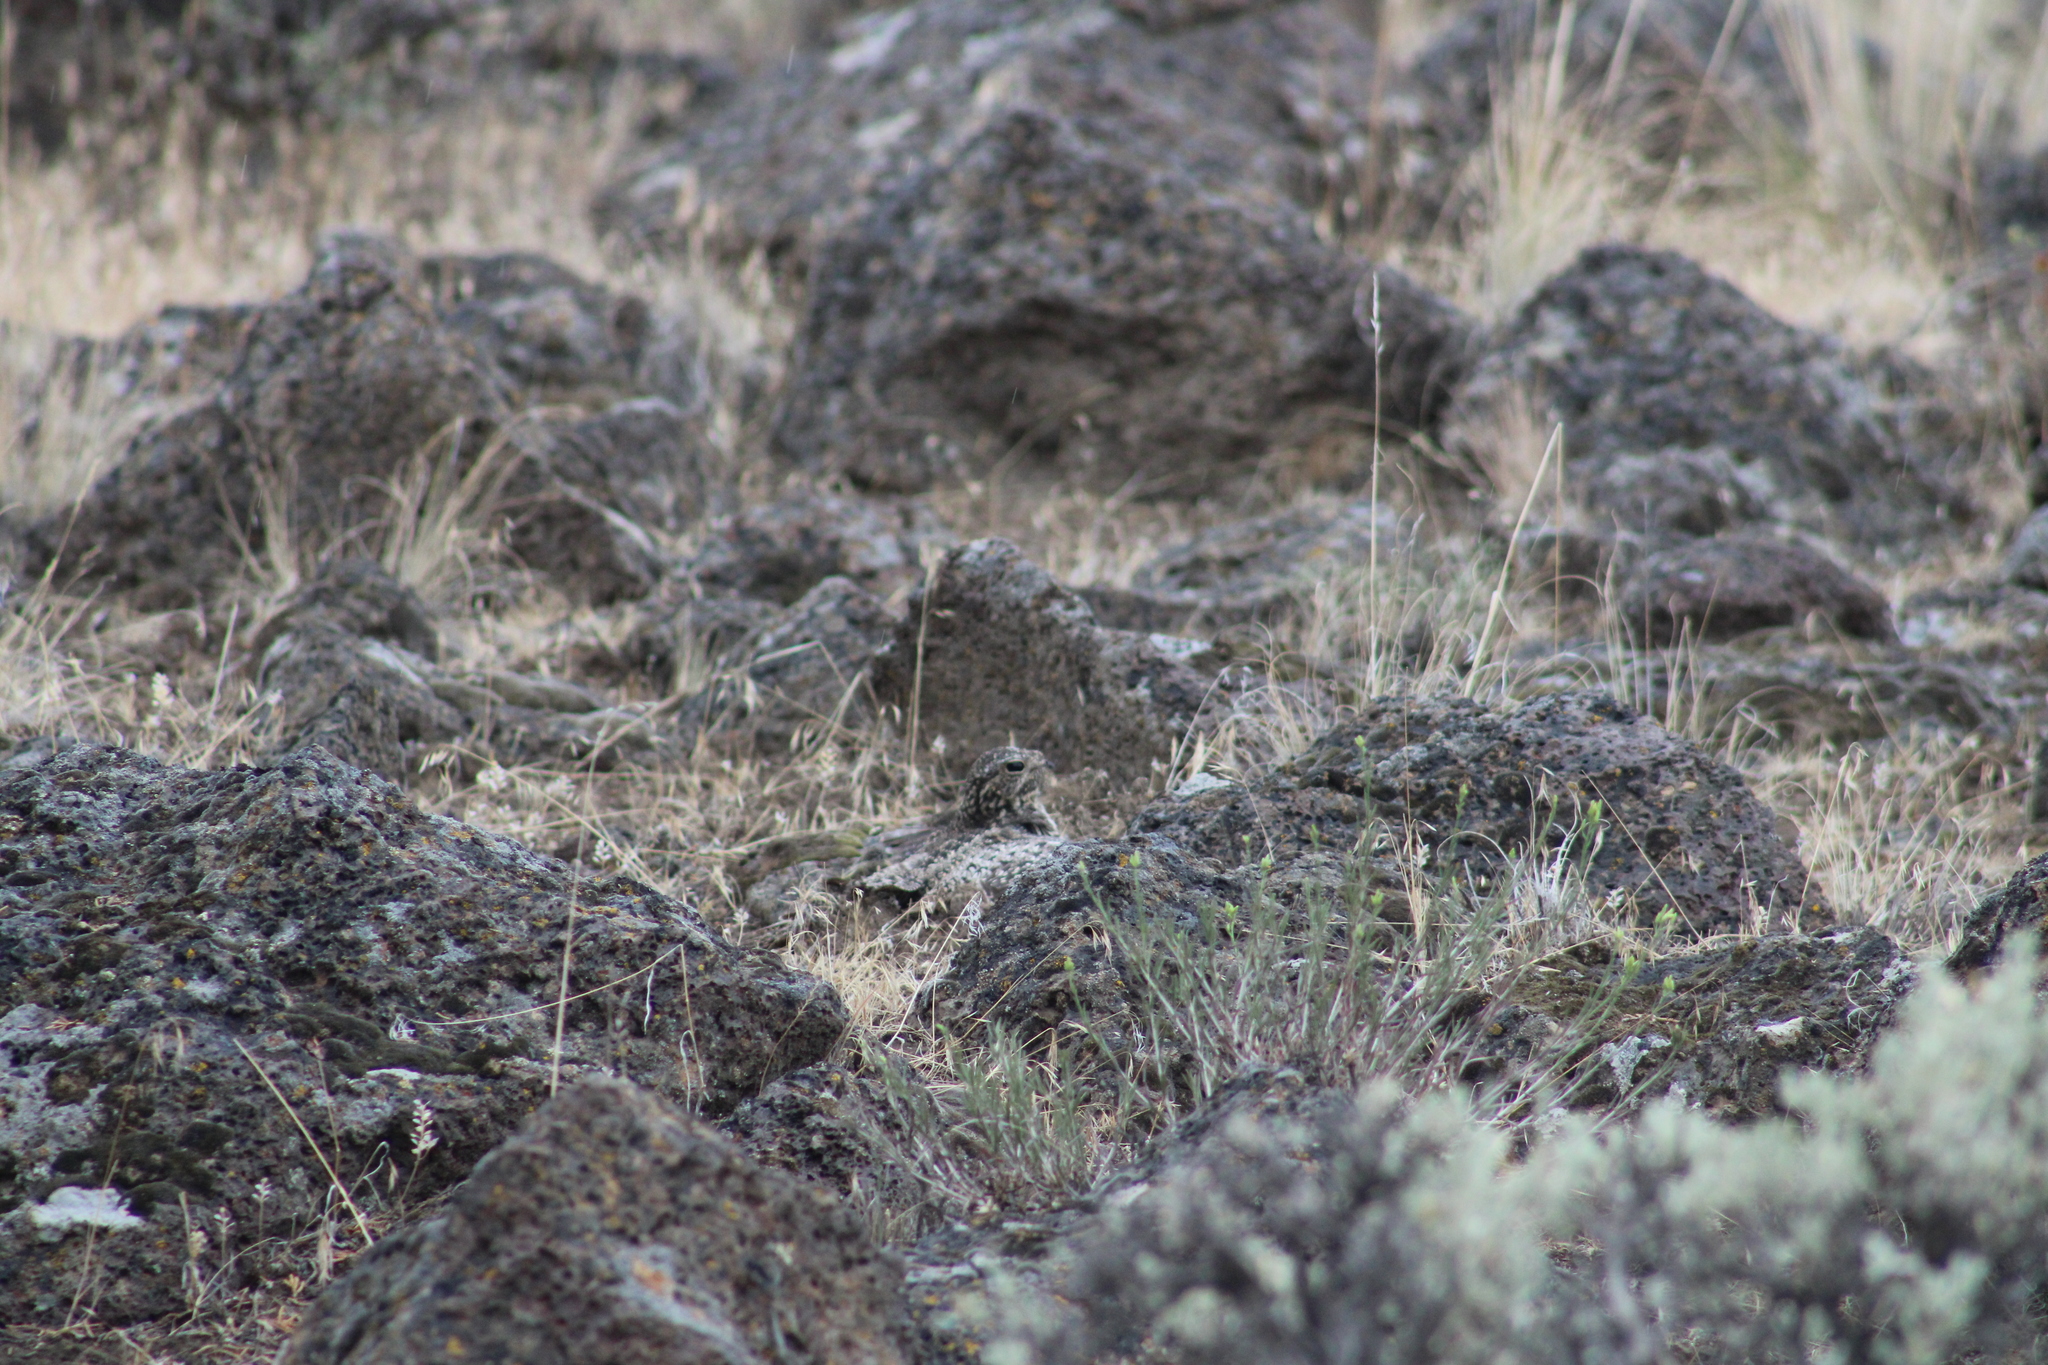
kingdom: Animalia
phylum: Chordata
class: Aves
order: Caprimulgiformes
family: Caprimulgidae
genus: Chordeiles
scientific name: Chordeiles minor
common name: Common nighthawk
